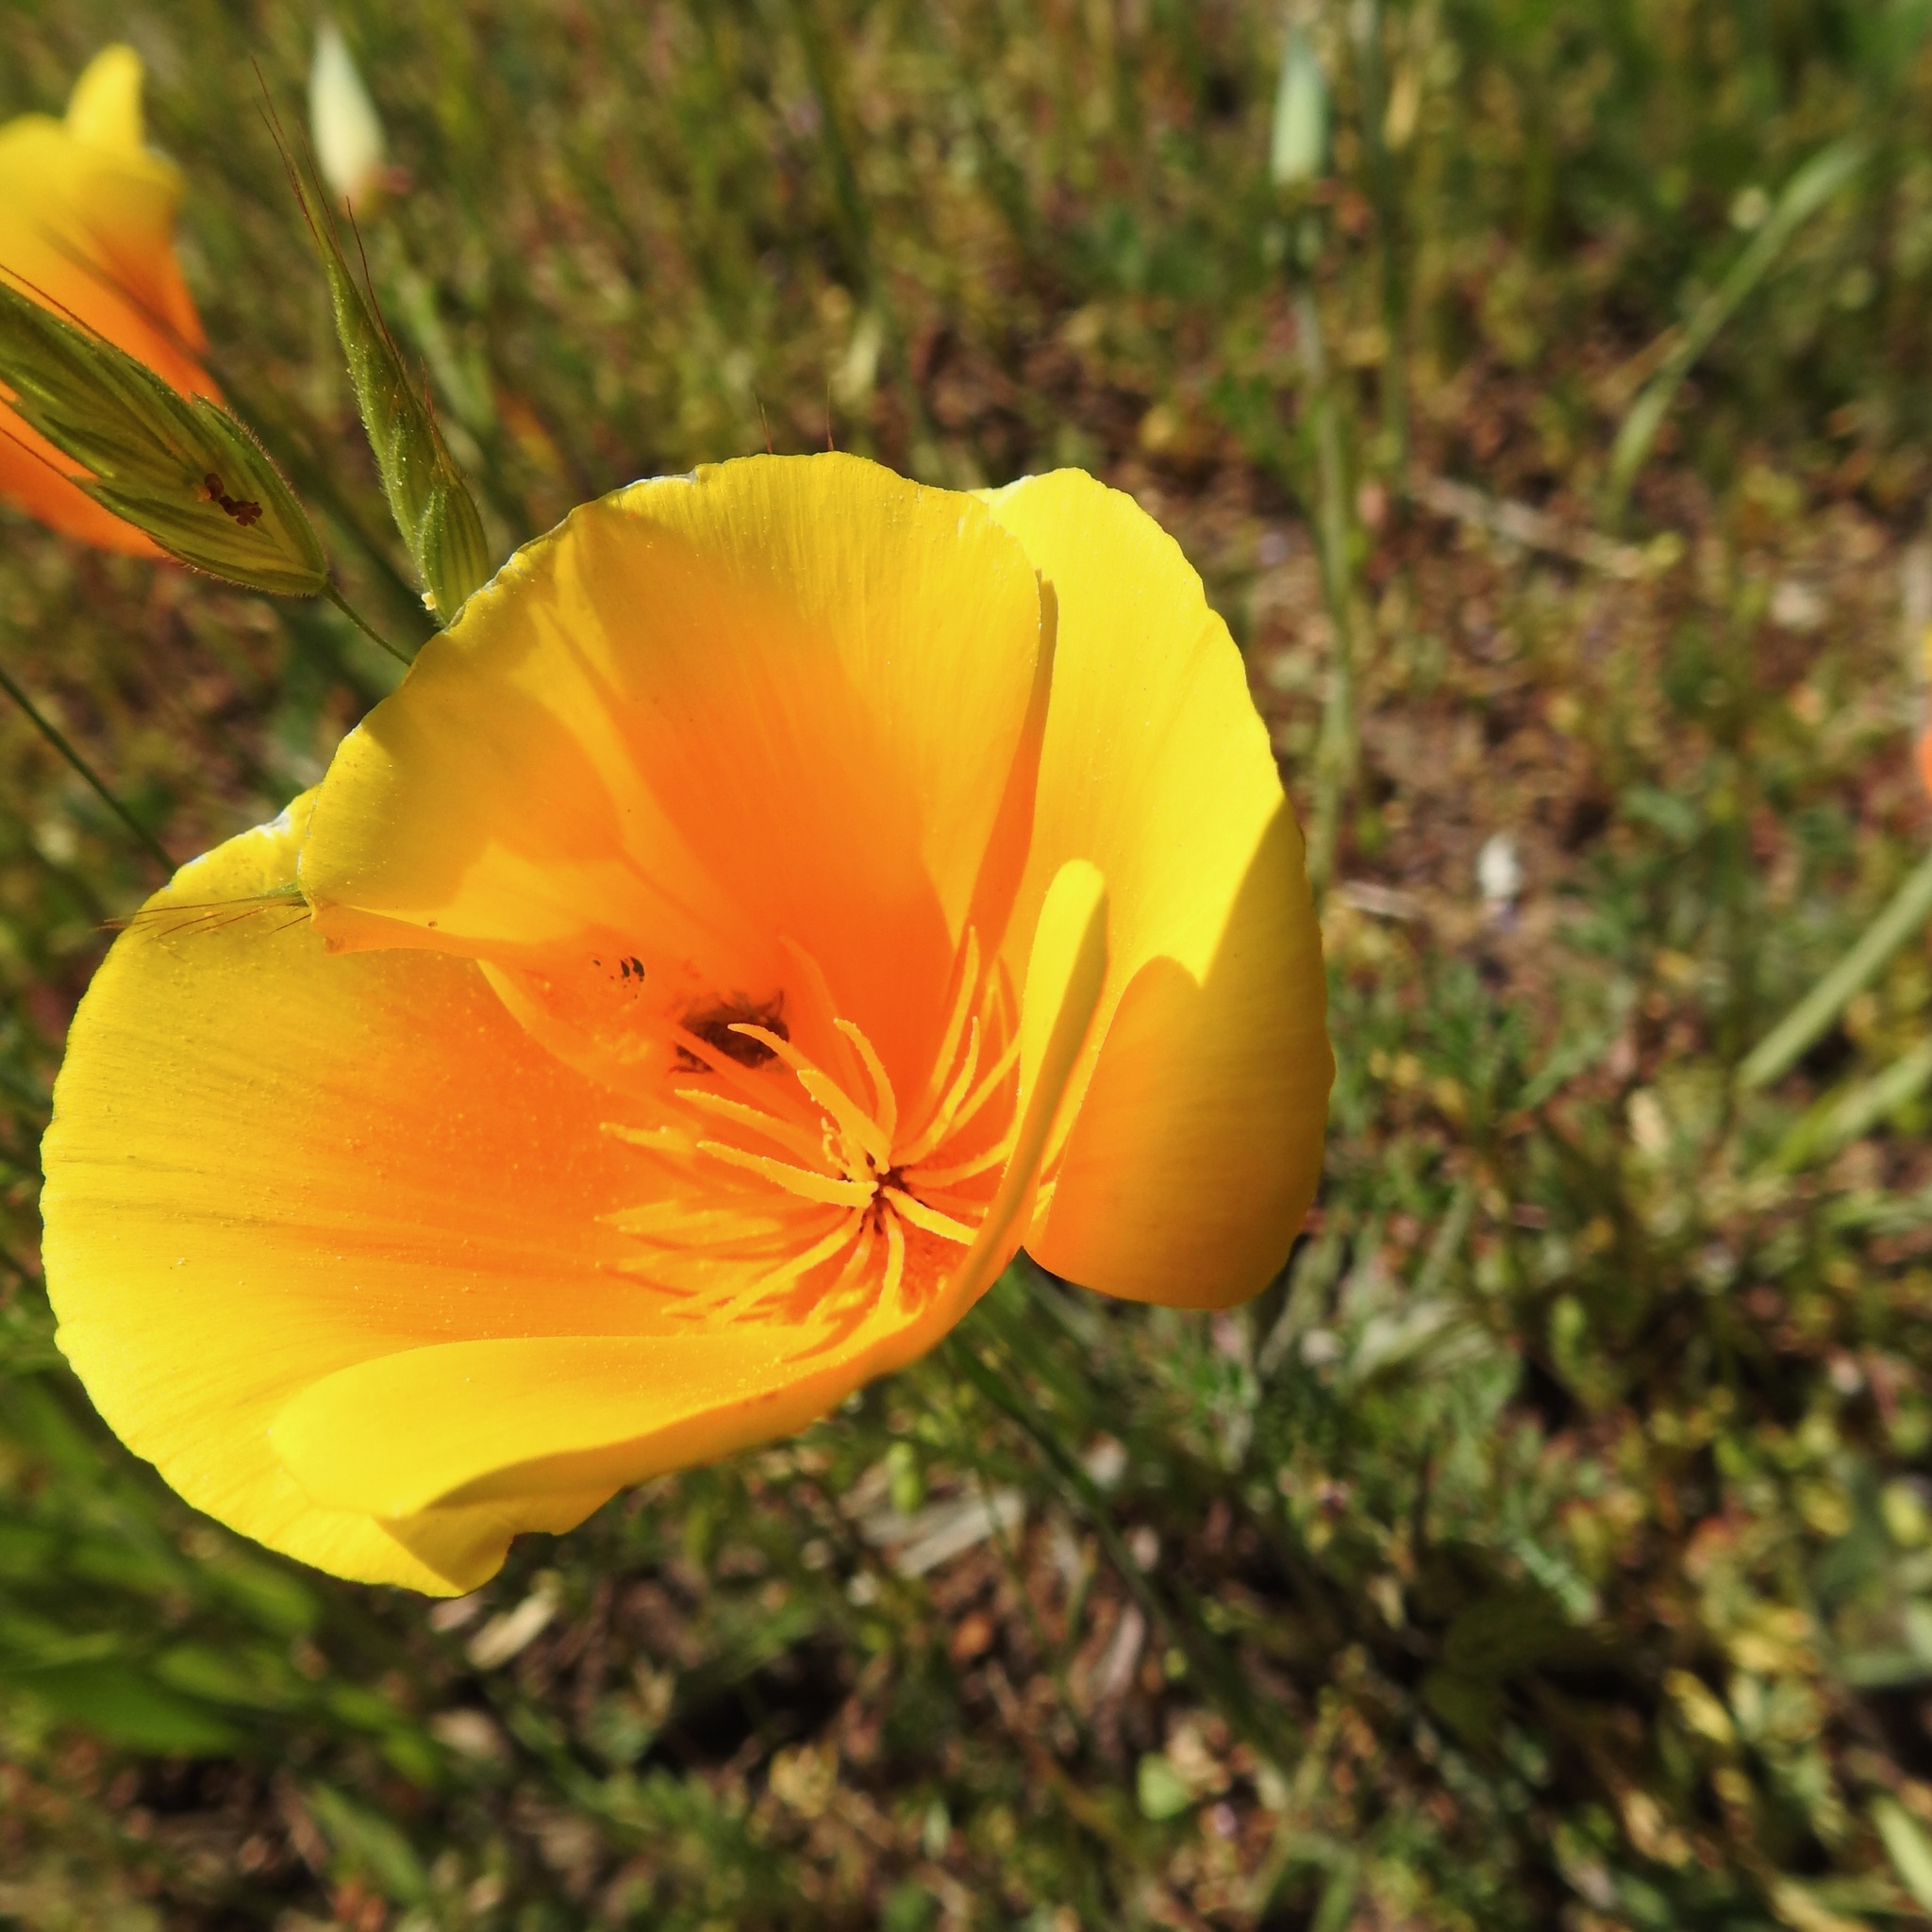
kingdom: Plantae
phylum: Tracheophyta
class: Magnoliopsida
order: Ranunculales
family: Papaveraceae
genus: Eschscholzia
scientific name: Eschscholzia californica
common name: California poppy
